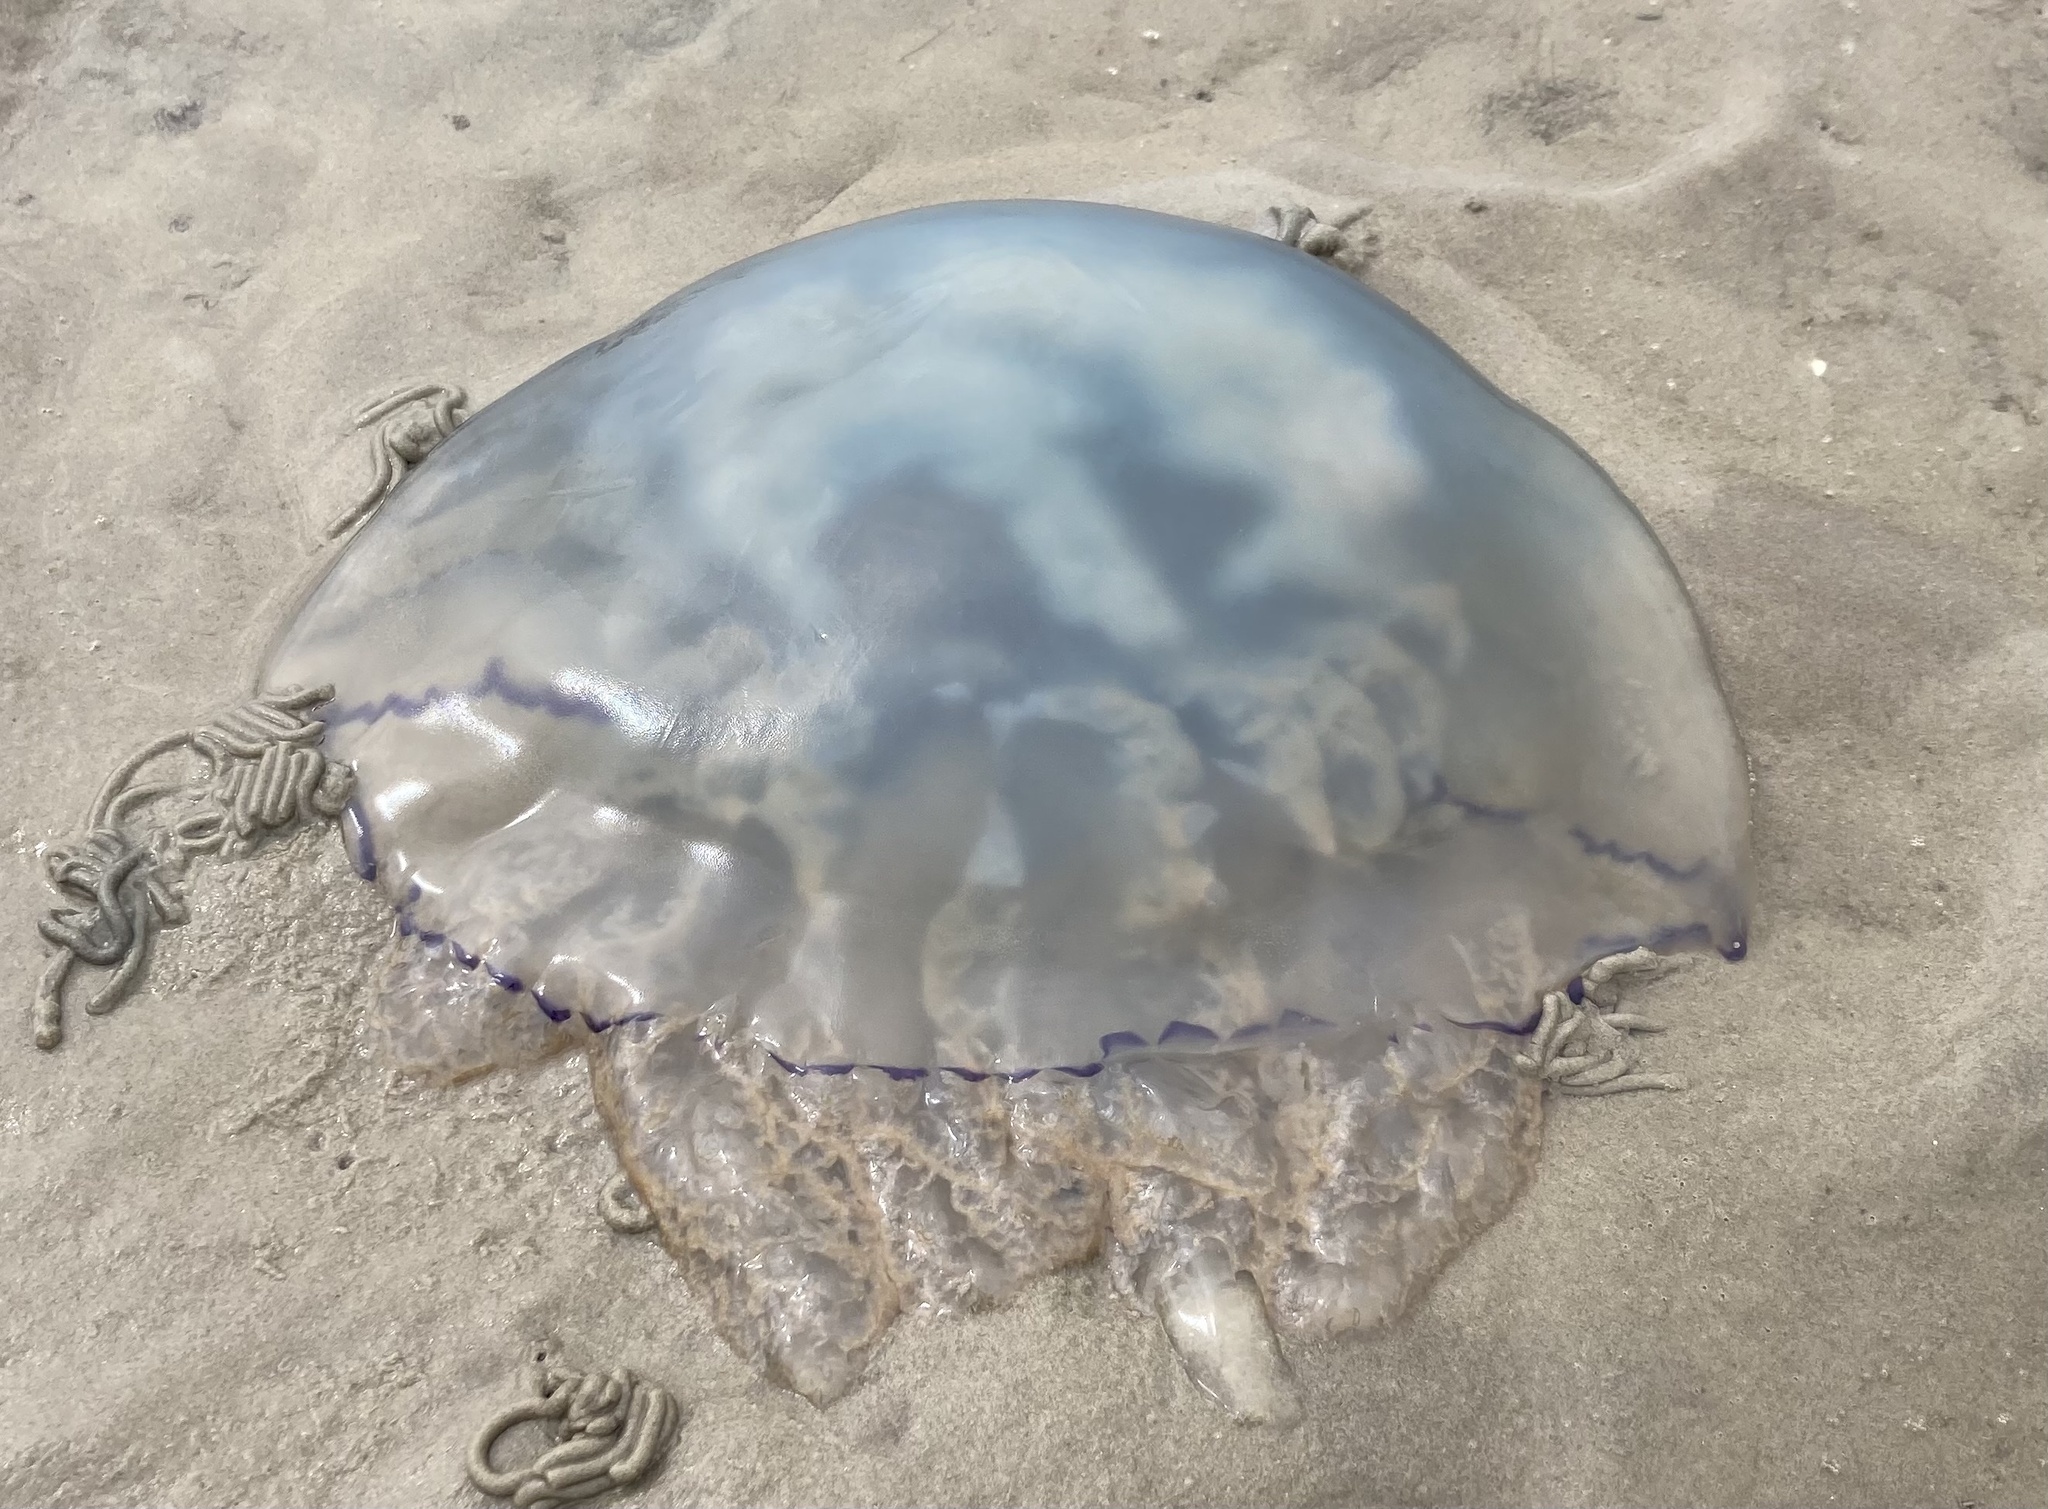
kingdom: Animalia
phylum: Cnidaria
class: Scyphozoa
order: Rhizostomeae
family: Rhizostomatidae
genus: Rhizostoma
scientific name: Rhizostoma octopus
